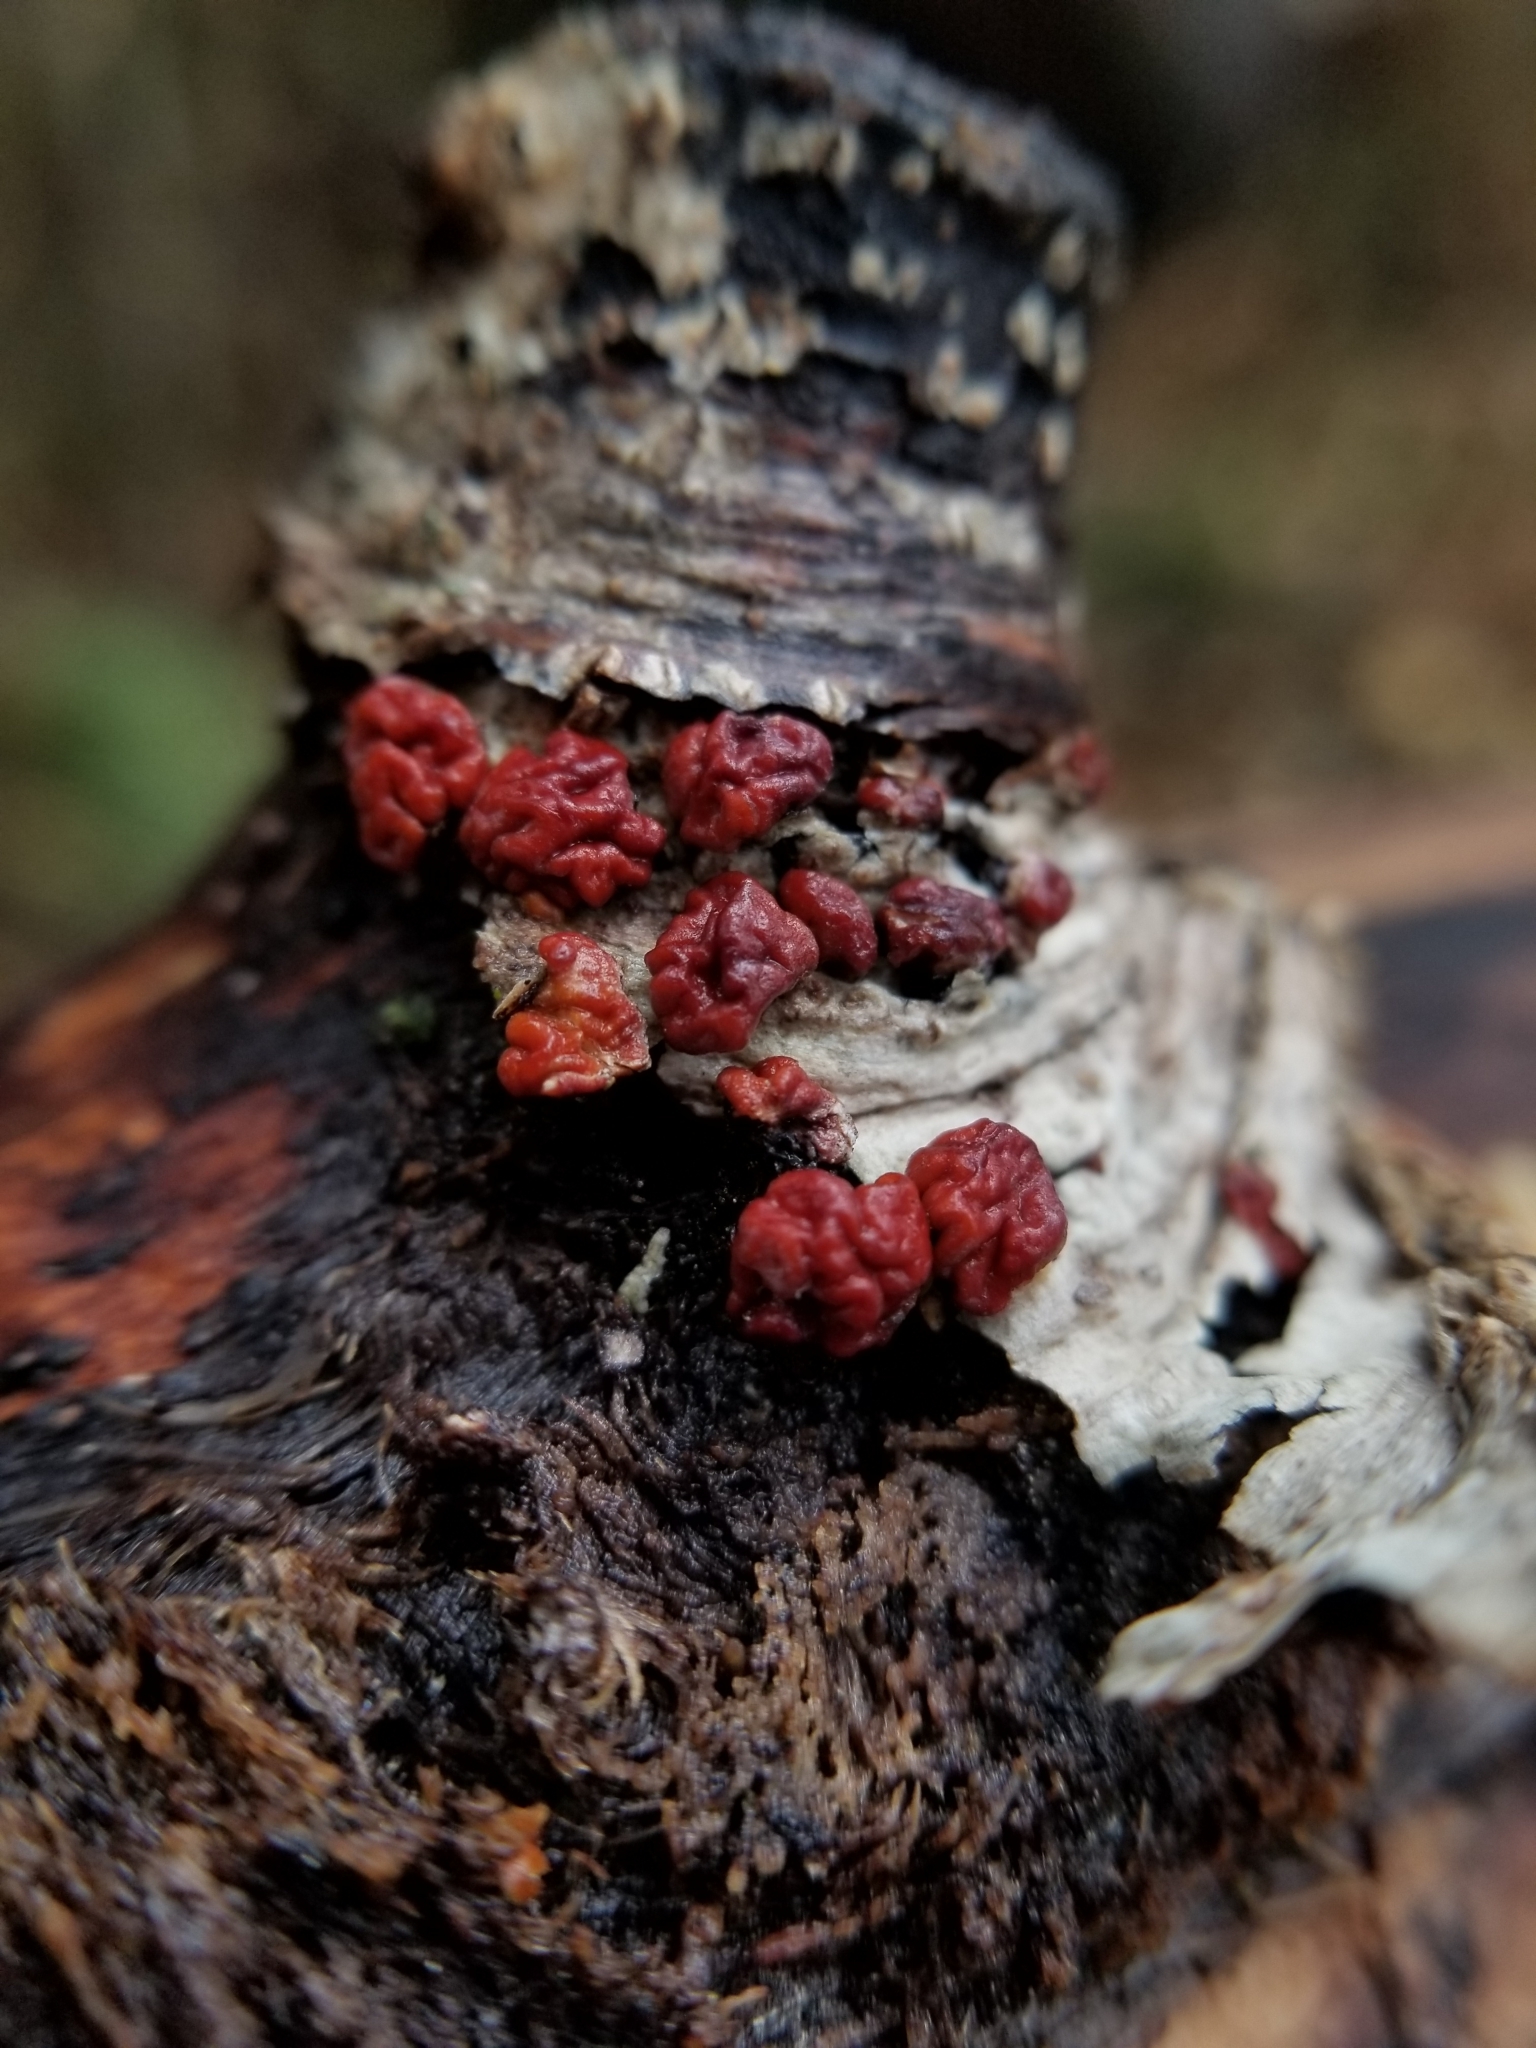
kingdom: Fungi
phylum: Basidiomycota
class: Agaricomycetes
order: Russulales
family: Peniophoraceae
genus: Peniophora
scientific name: Peniophora rufa
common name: Red tree brain fungus
